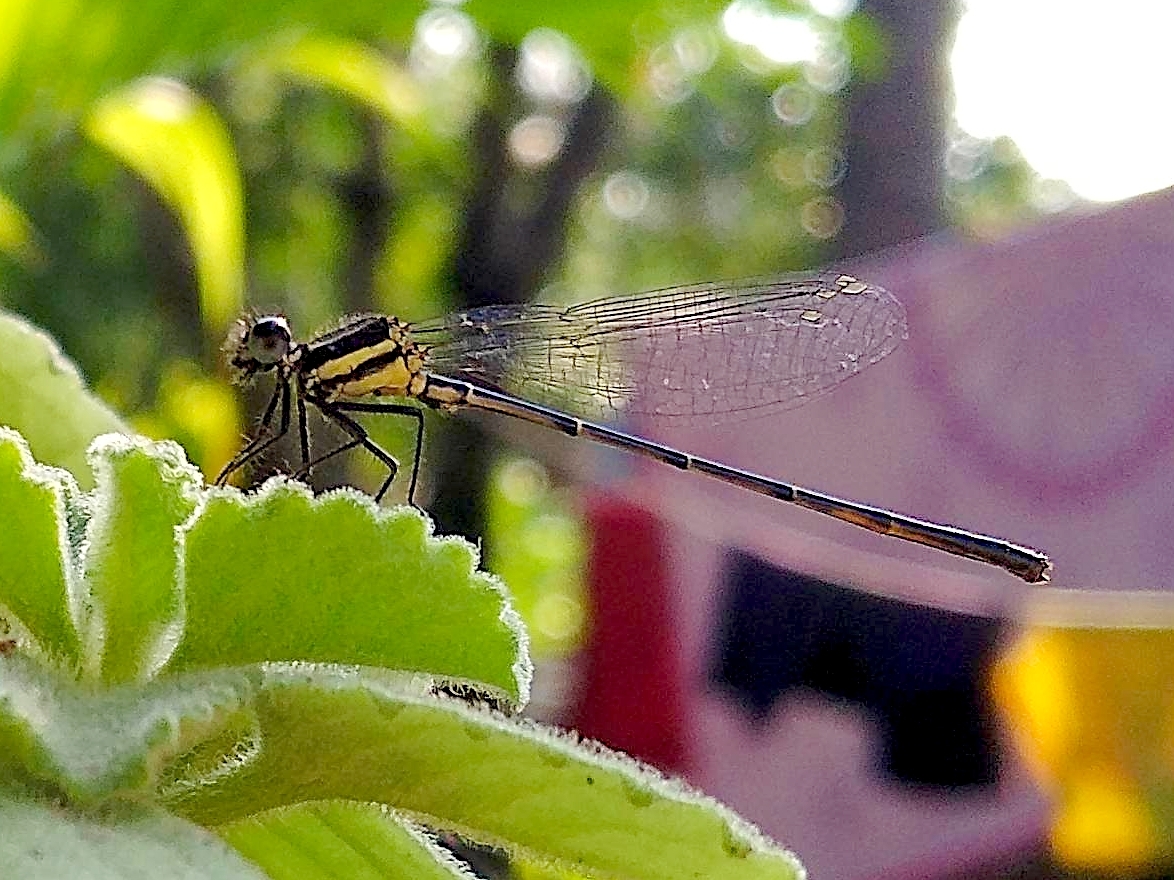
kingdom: Animalia
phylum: Arthropoda
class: Insecta
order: Odonata
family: Platycnemididae
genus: Onychargia
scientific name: Onychargia atrocyana
